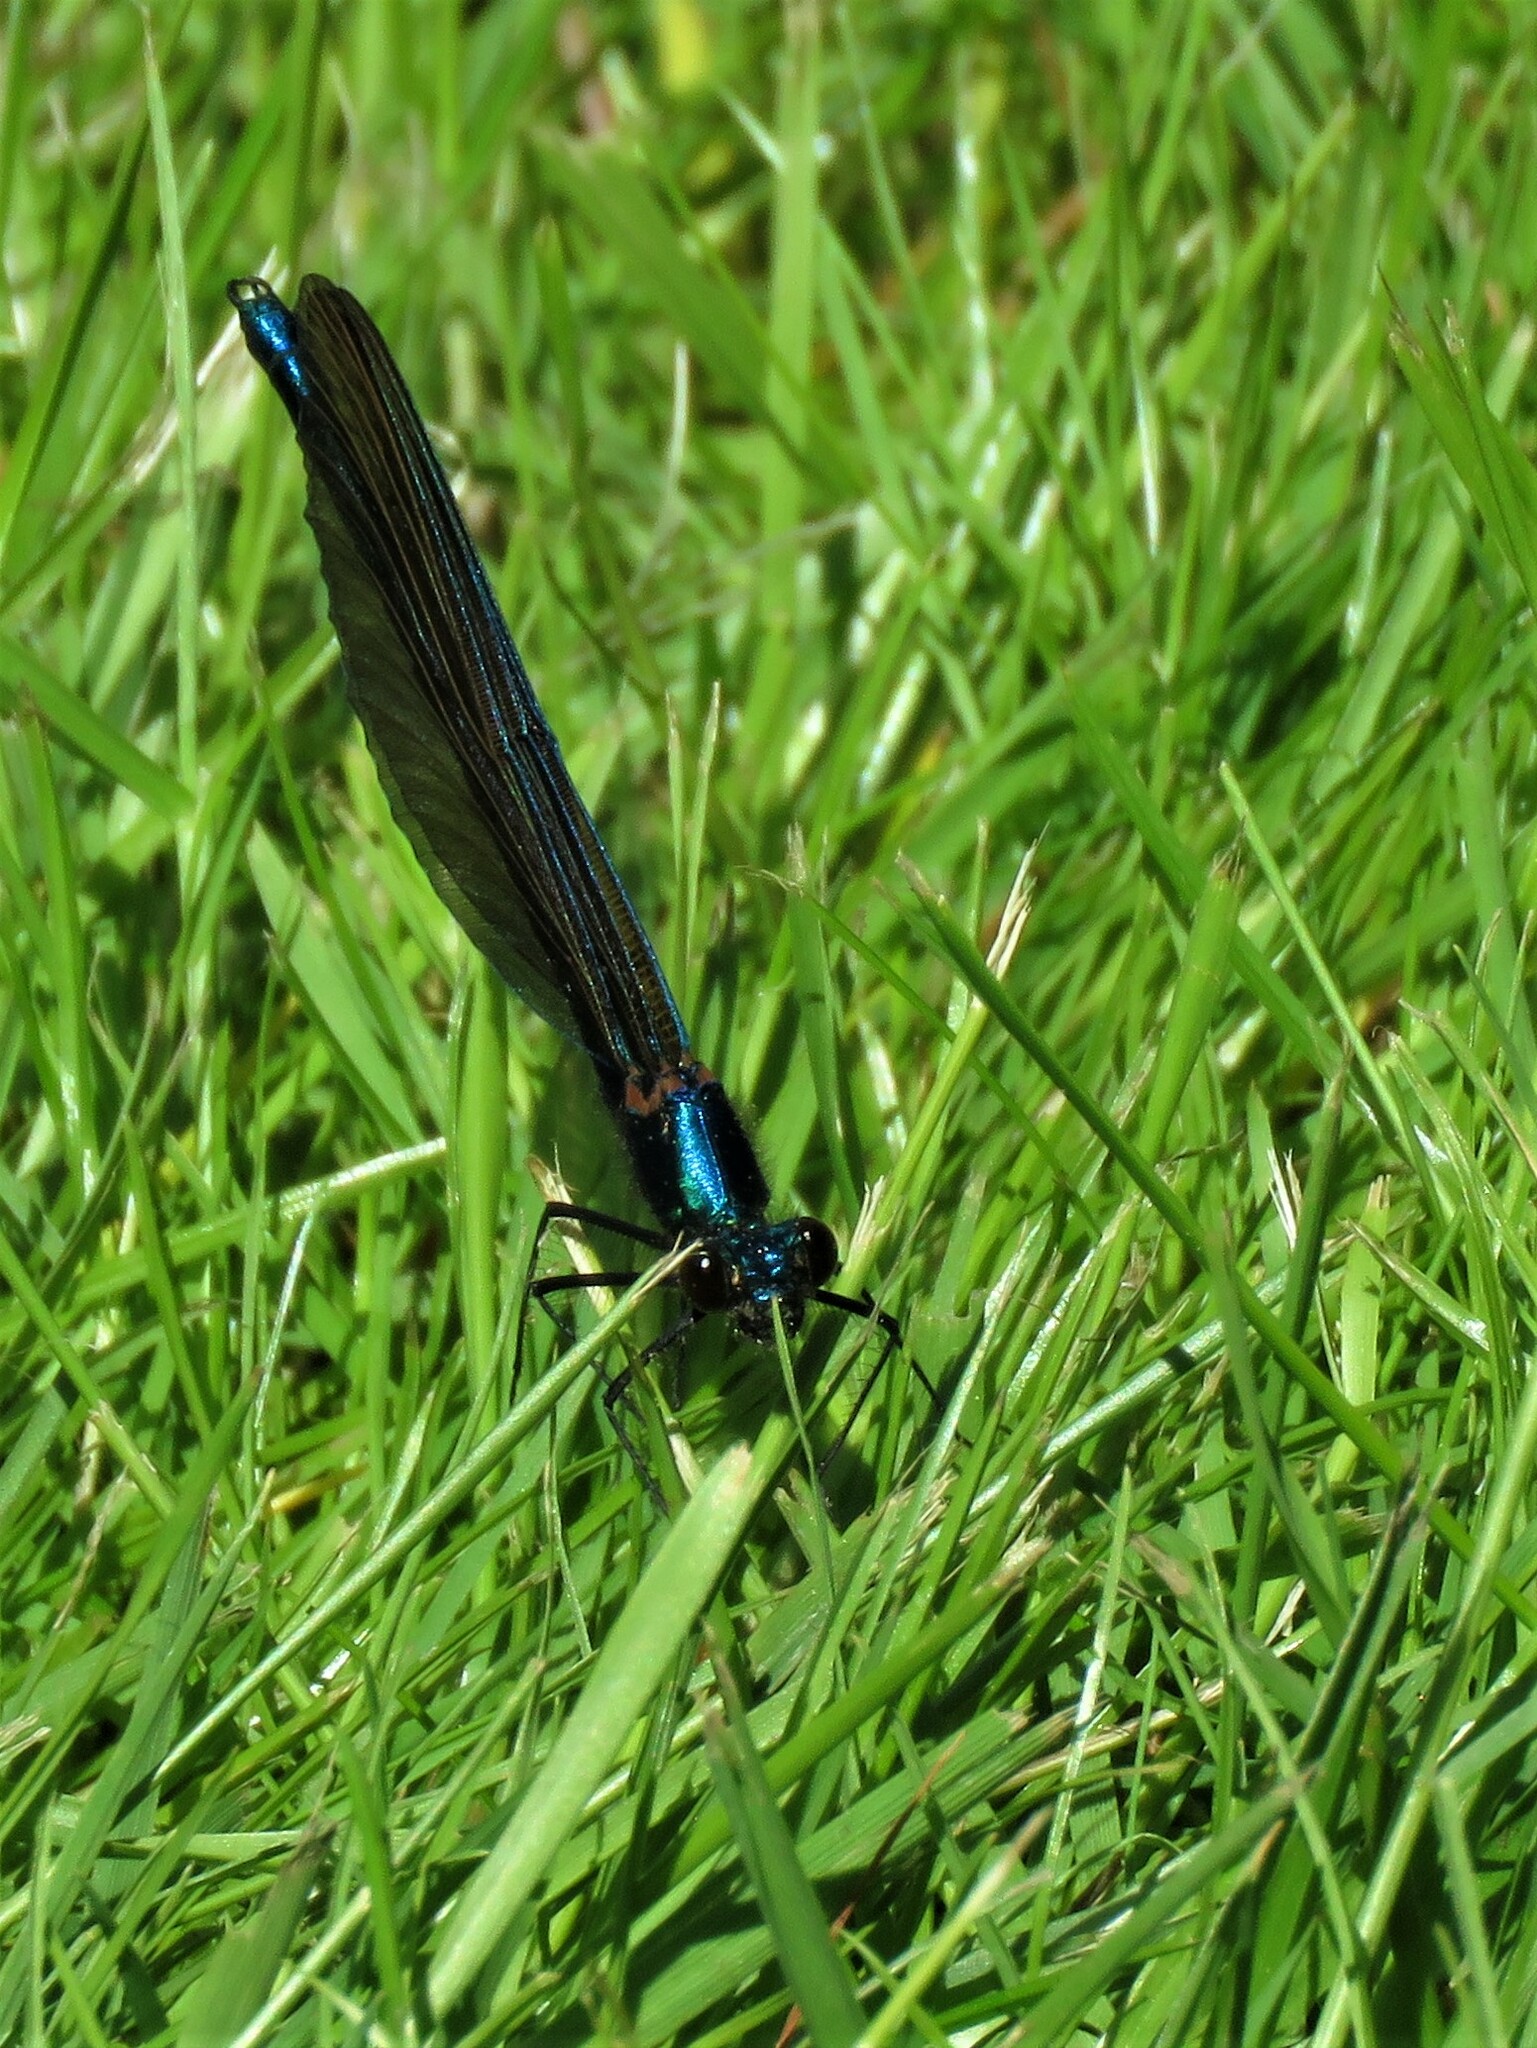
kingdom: Animalia
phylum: Arthropoda
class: Insecta
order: Odonata
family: Calopterygidae
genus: Calopteryx
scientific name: Calopteryx virgo
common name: Beautiful demoiselle
